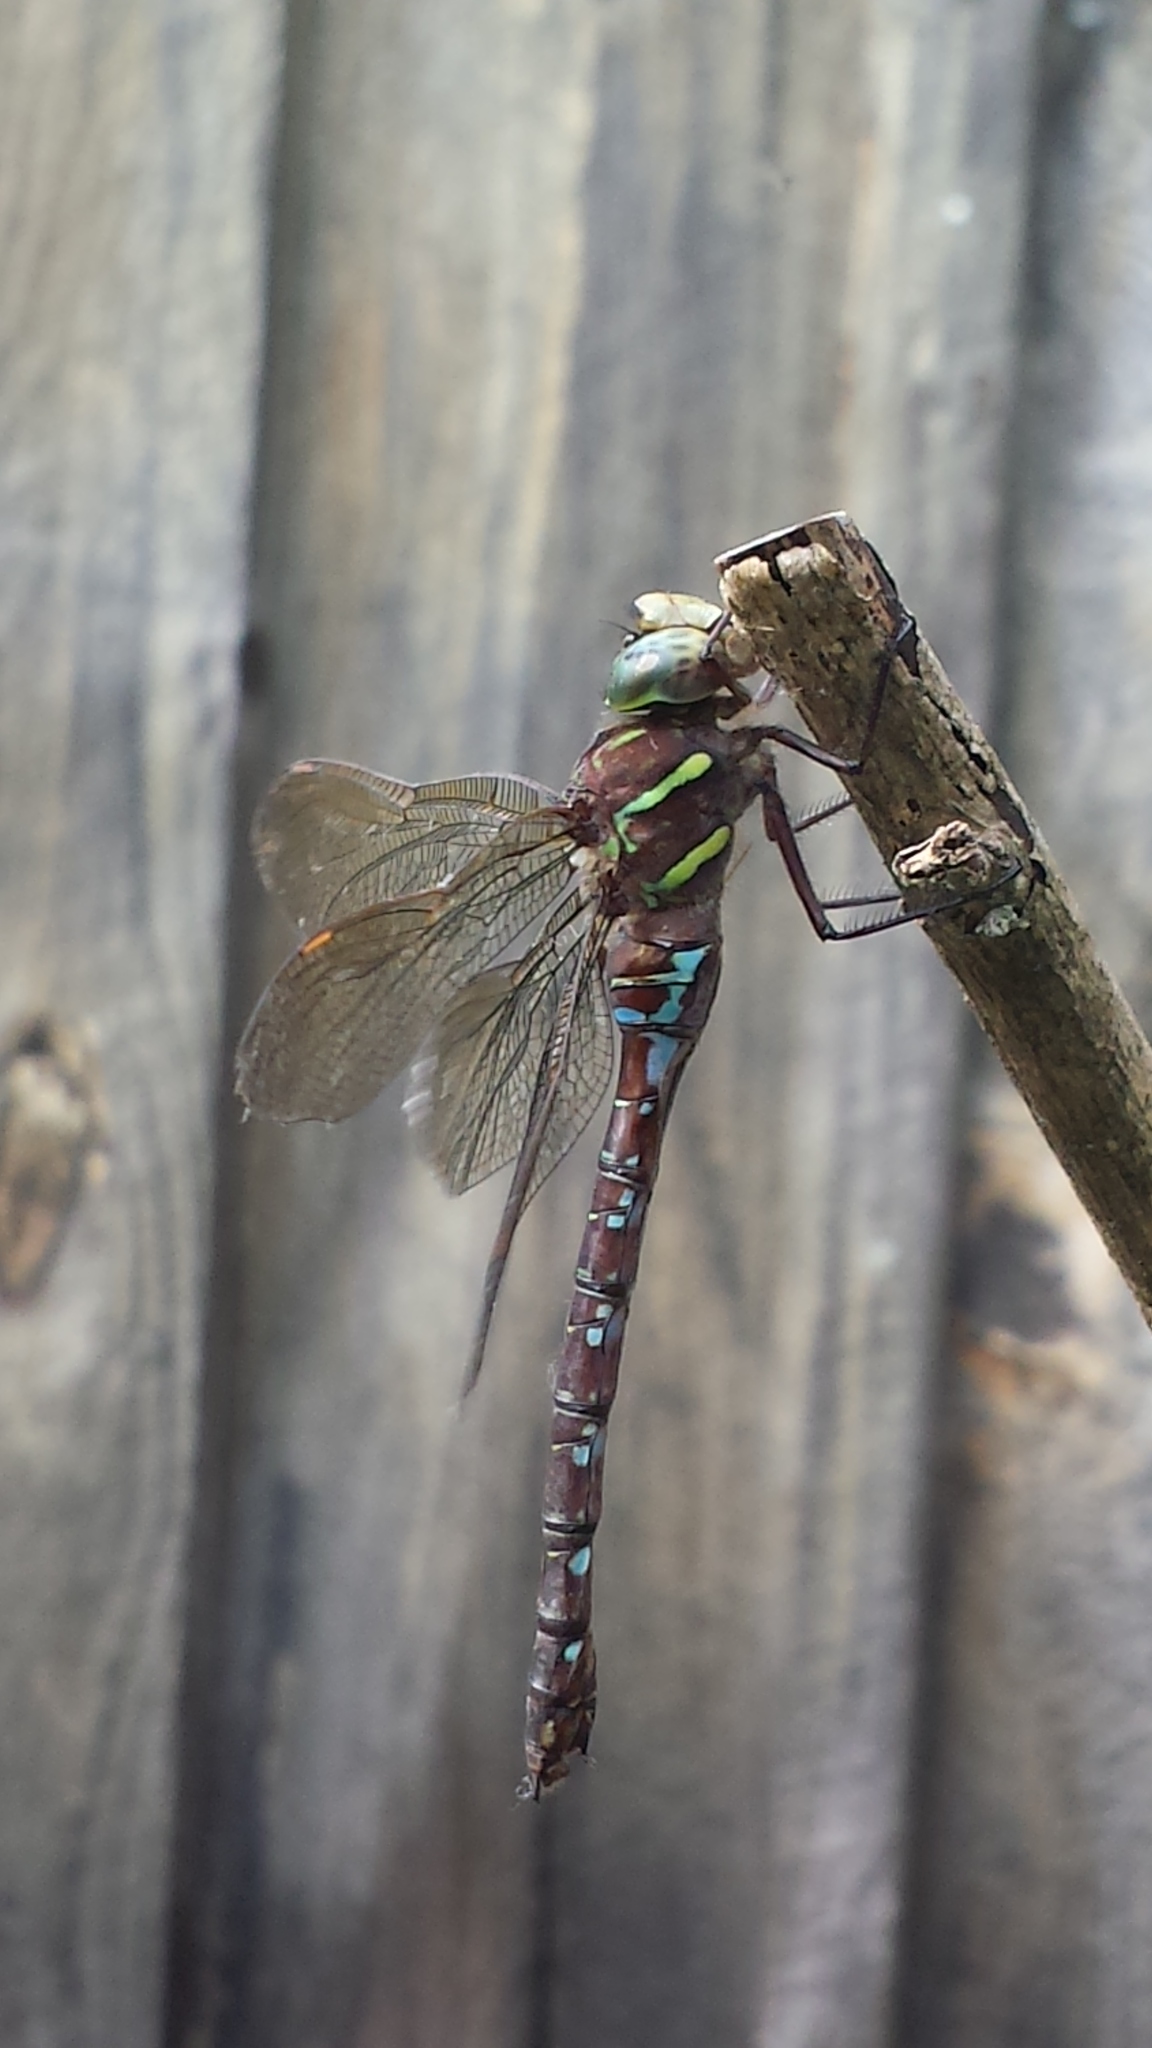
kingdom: Animalia
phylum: Arthropoda
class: Insecta
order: Odonata
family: Aeshnidae
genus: Aeshna
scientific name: Aeshna umbrosa
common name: Shadow darner
